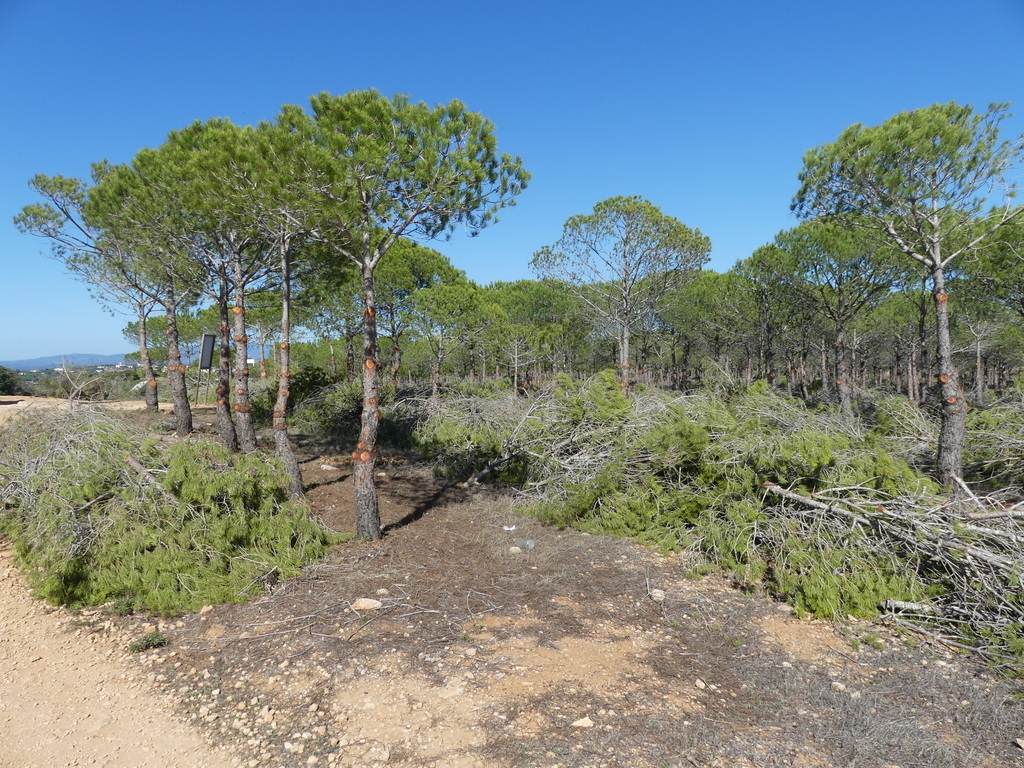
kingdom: Plantae
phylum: Tracheophyta
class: Pinopsida
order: Pinales
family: Pinaceae
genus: Pinus
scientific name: Pinus pinea
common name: Italian stone pine
